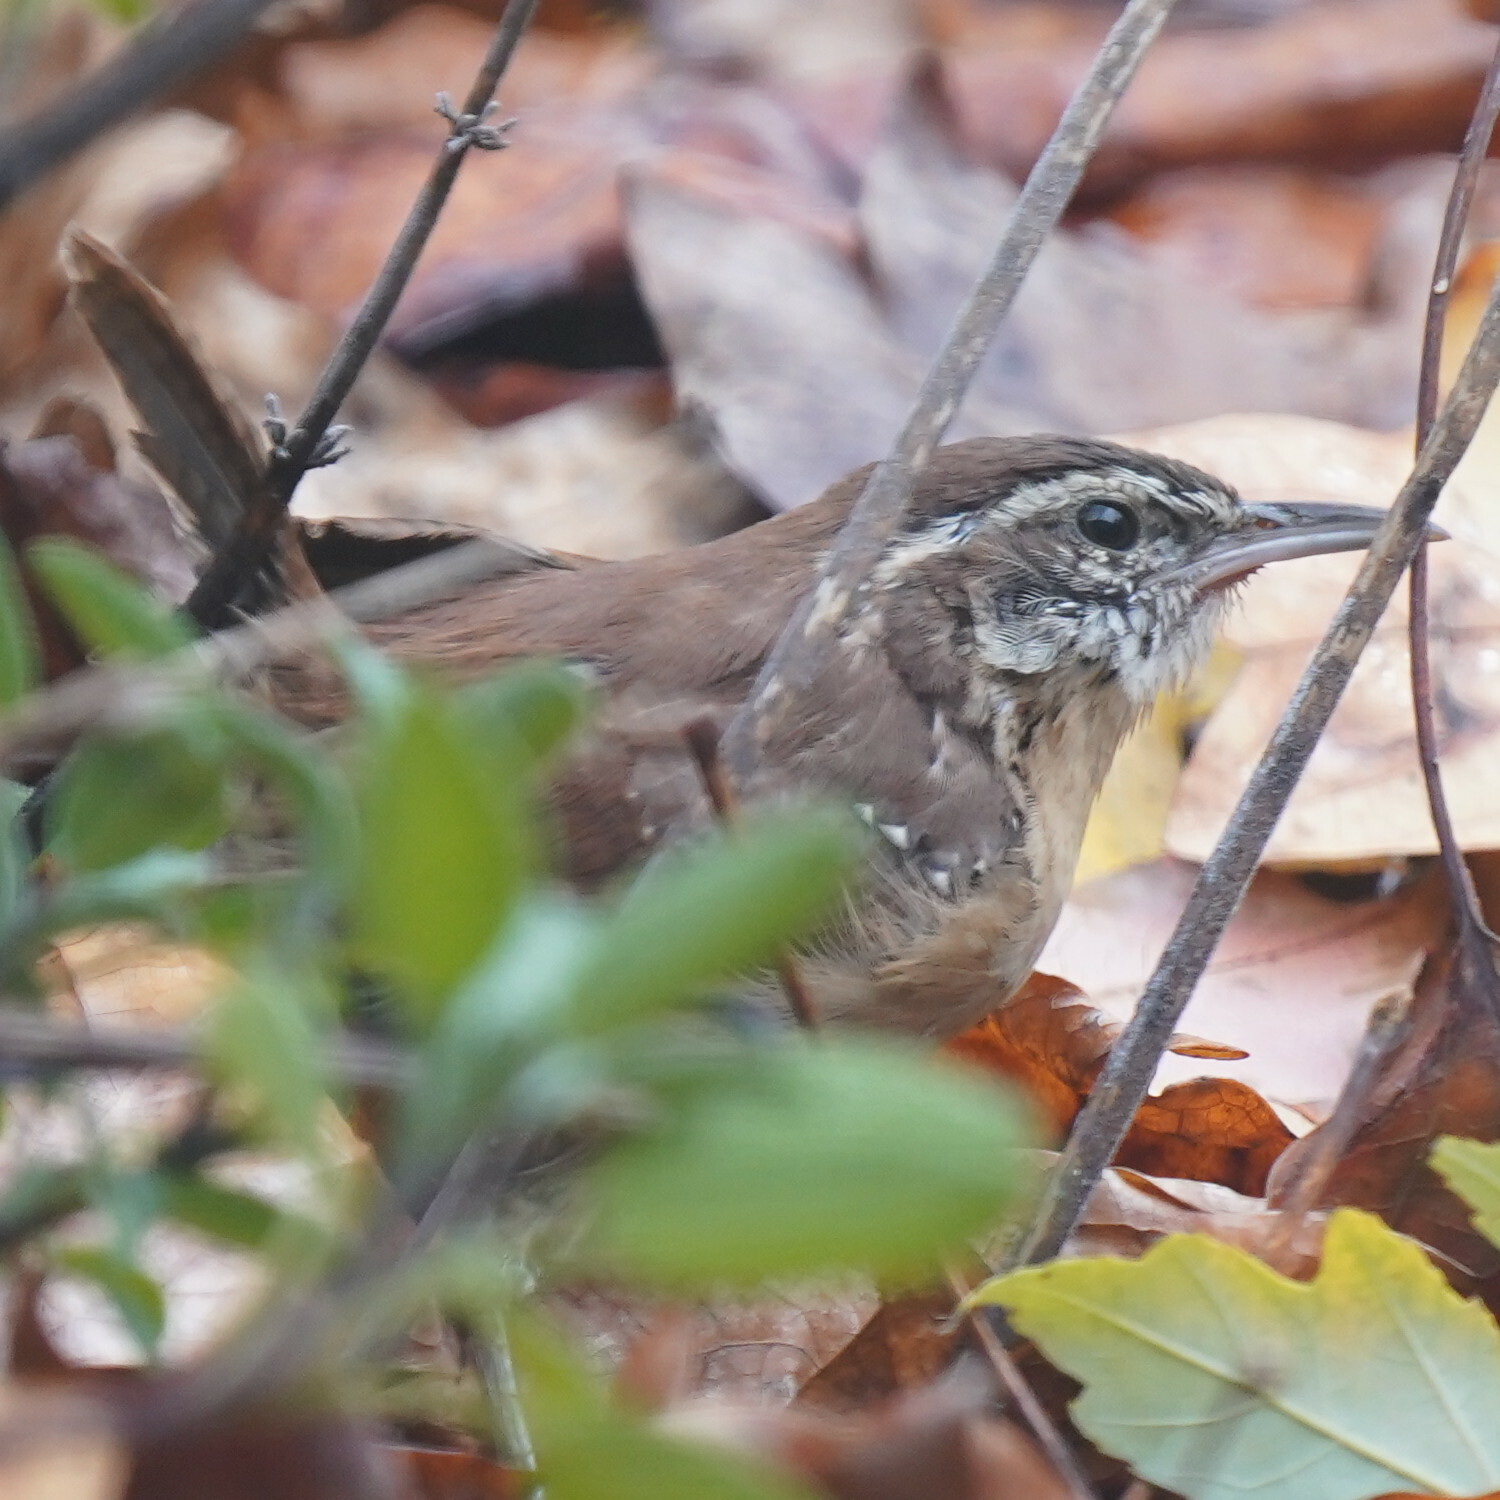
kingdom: Animalia
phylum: Chordata
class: Aves
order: Passeriformes
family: Troglodytidae
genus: Thryothorus
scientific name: Thryothorus ludovicianus
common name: Carolina wren
